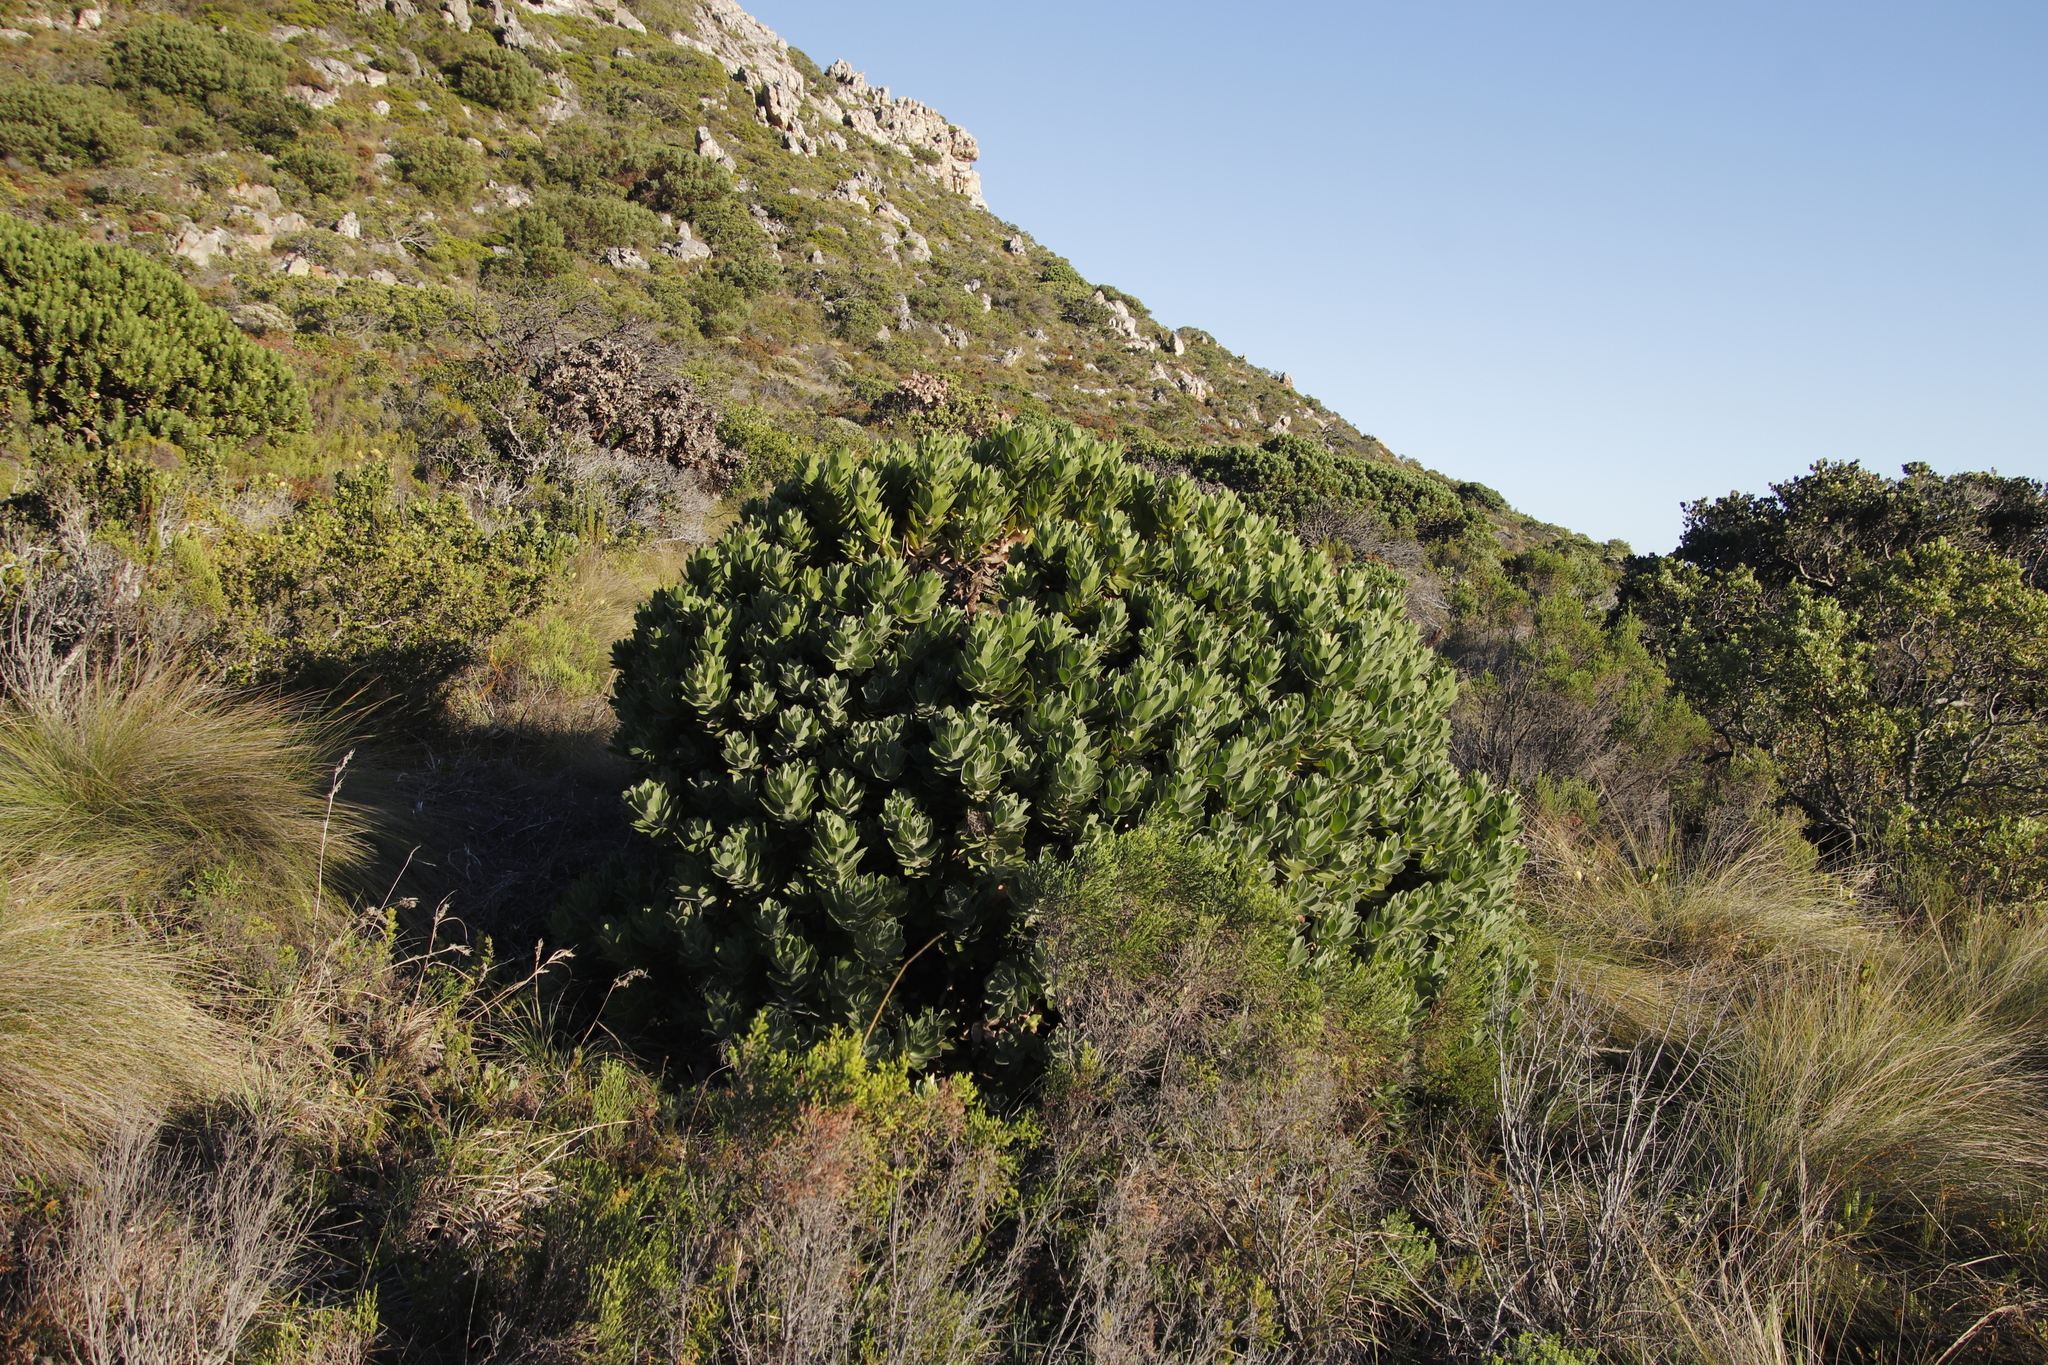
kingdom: Plantae
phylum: Tracheophyta
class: Magnoliopsida
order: Proteales
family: Proteaceae
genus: Leucospermum
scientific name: Leucospermum conocarpodendron
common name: Tree pincushion
